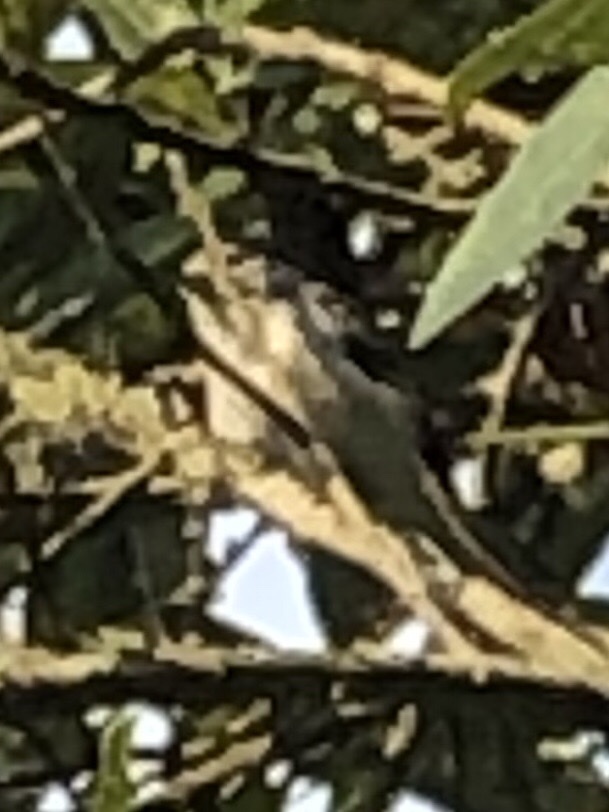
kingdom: Animalia
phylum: Chordata
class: Aves
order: Passeriformes
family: Parulidae
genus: Setophaga
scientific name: Setophaga pensylvanica
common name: Chestnut-sided warbler
